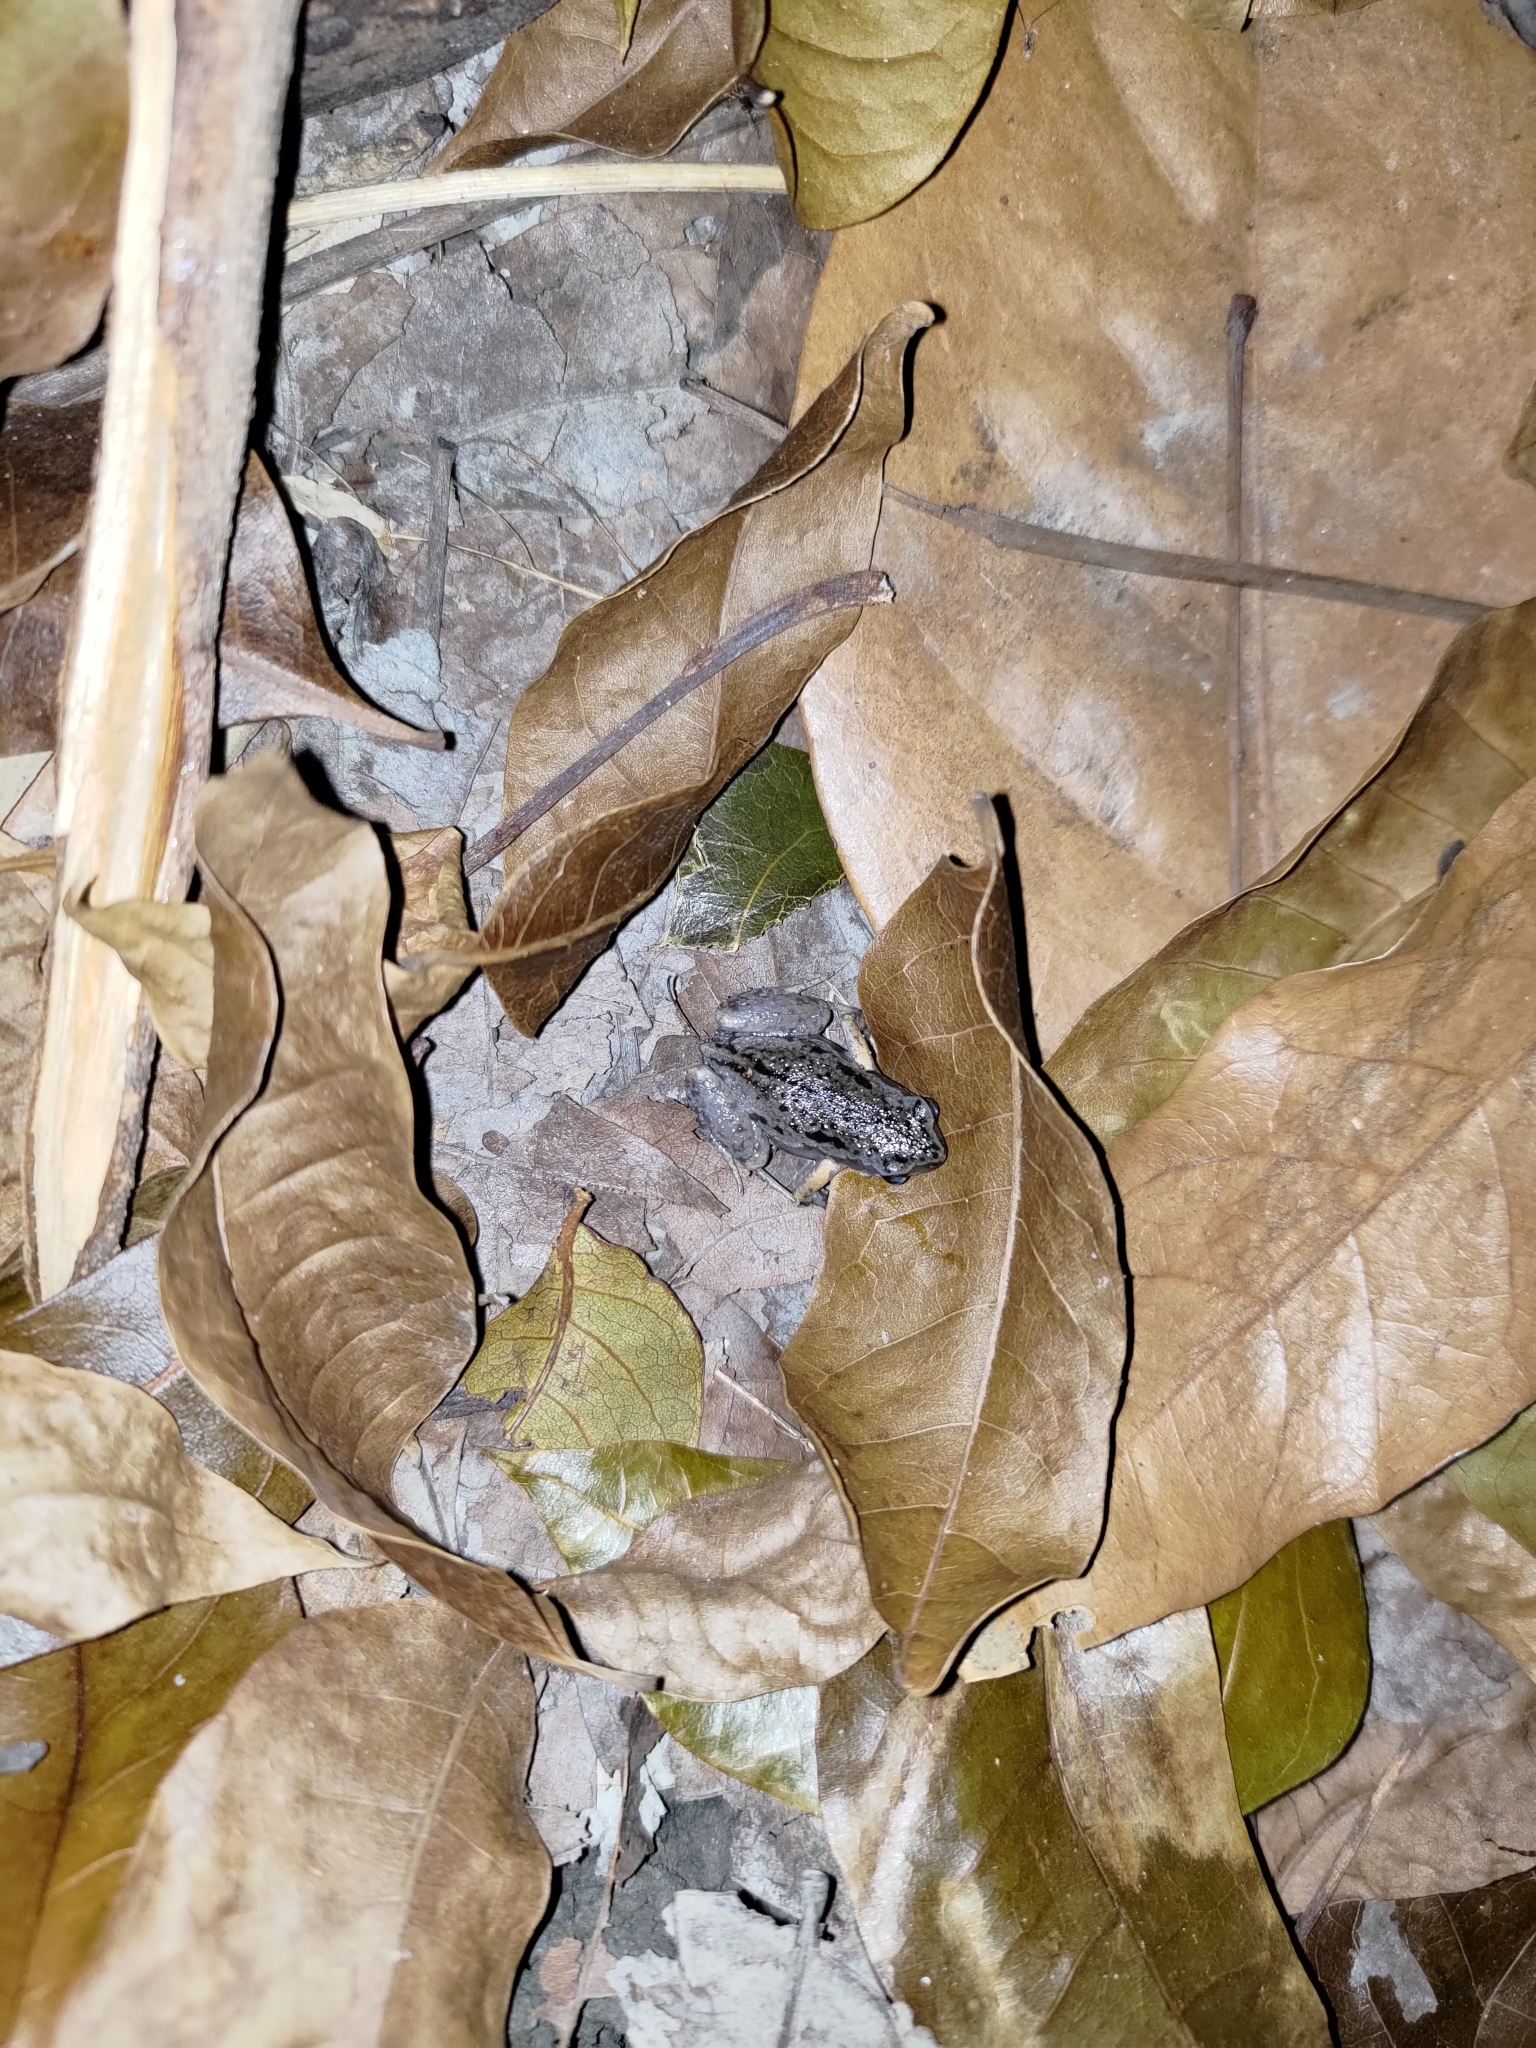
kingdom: Animalia
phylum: Chordata
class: Amphibia
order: Anura
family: Microhylidae
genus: Micryletta
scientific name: Micryletta steinegeri
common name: Stejneger's paddy frog
